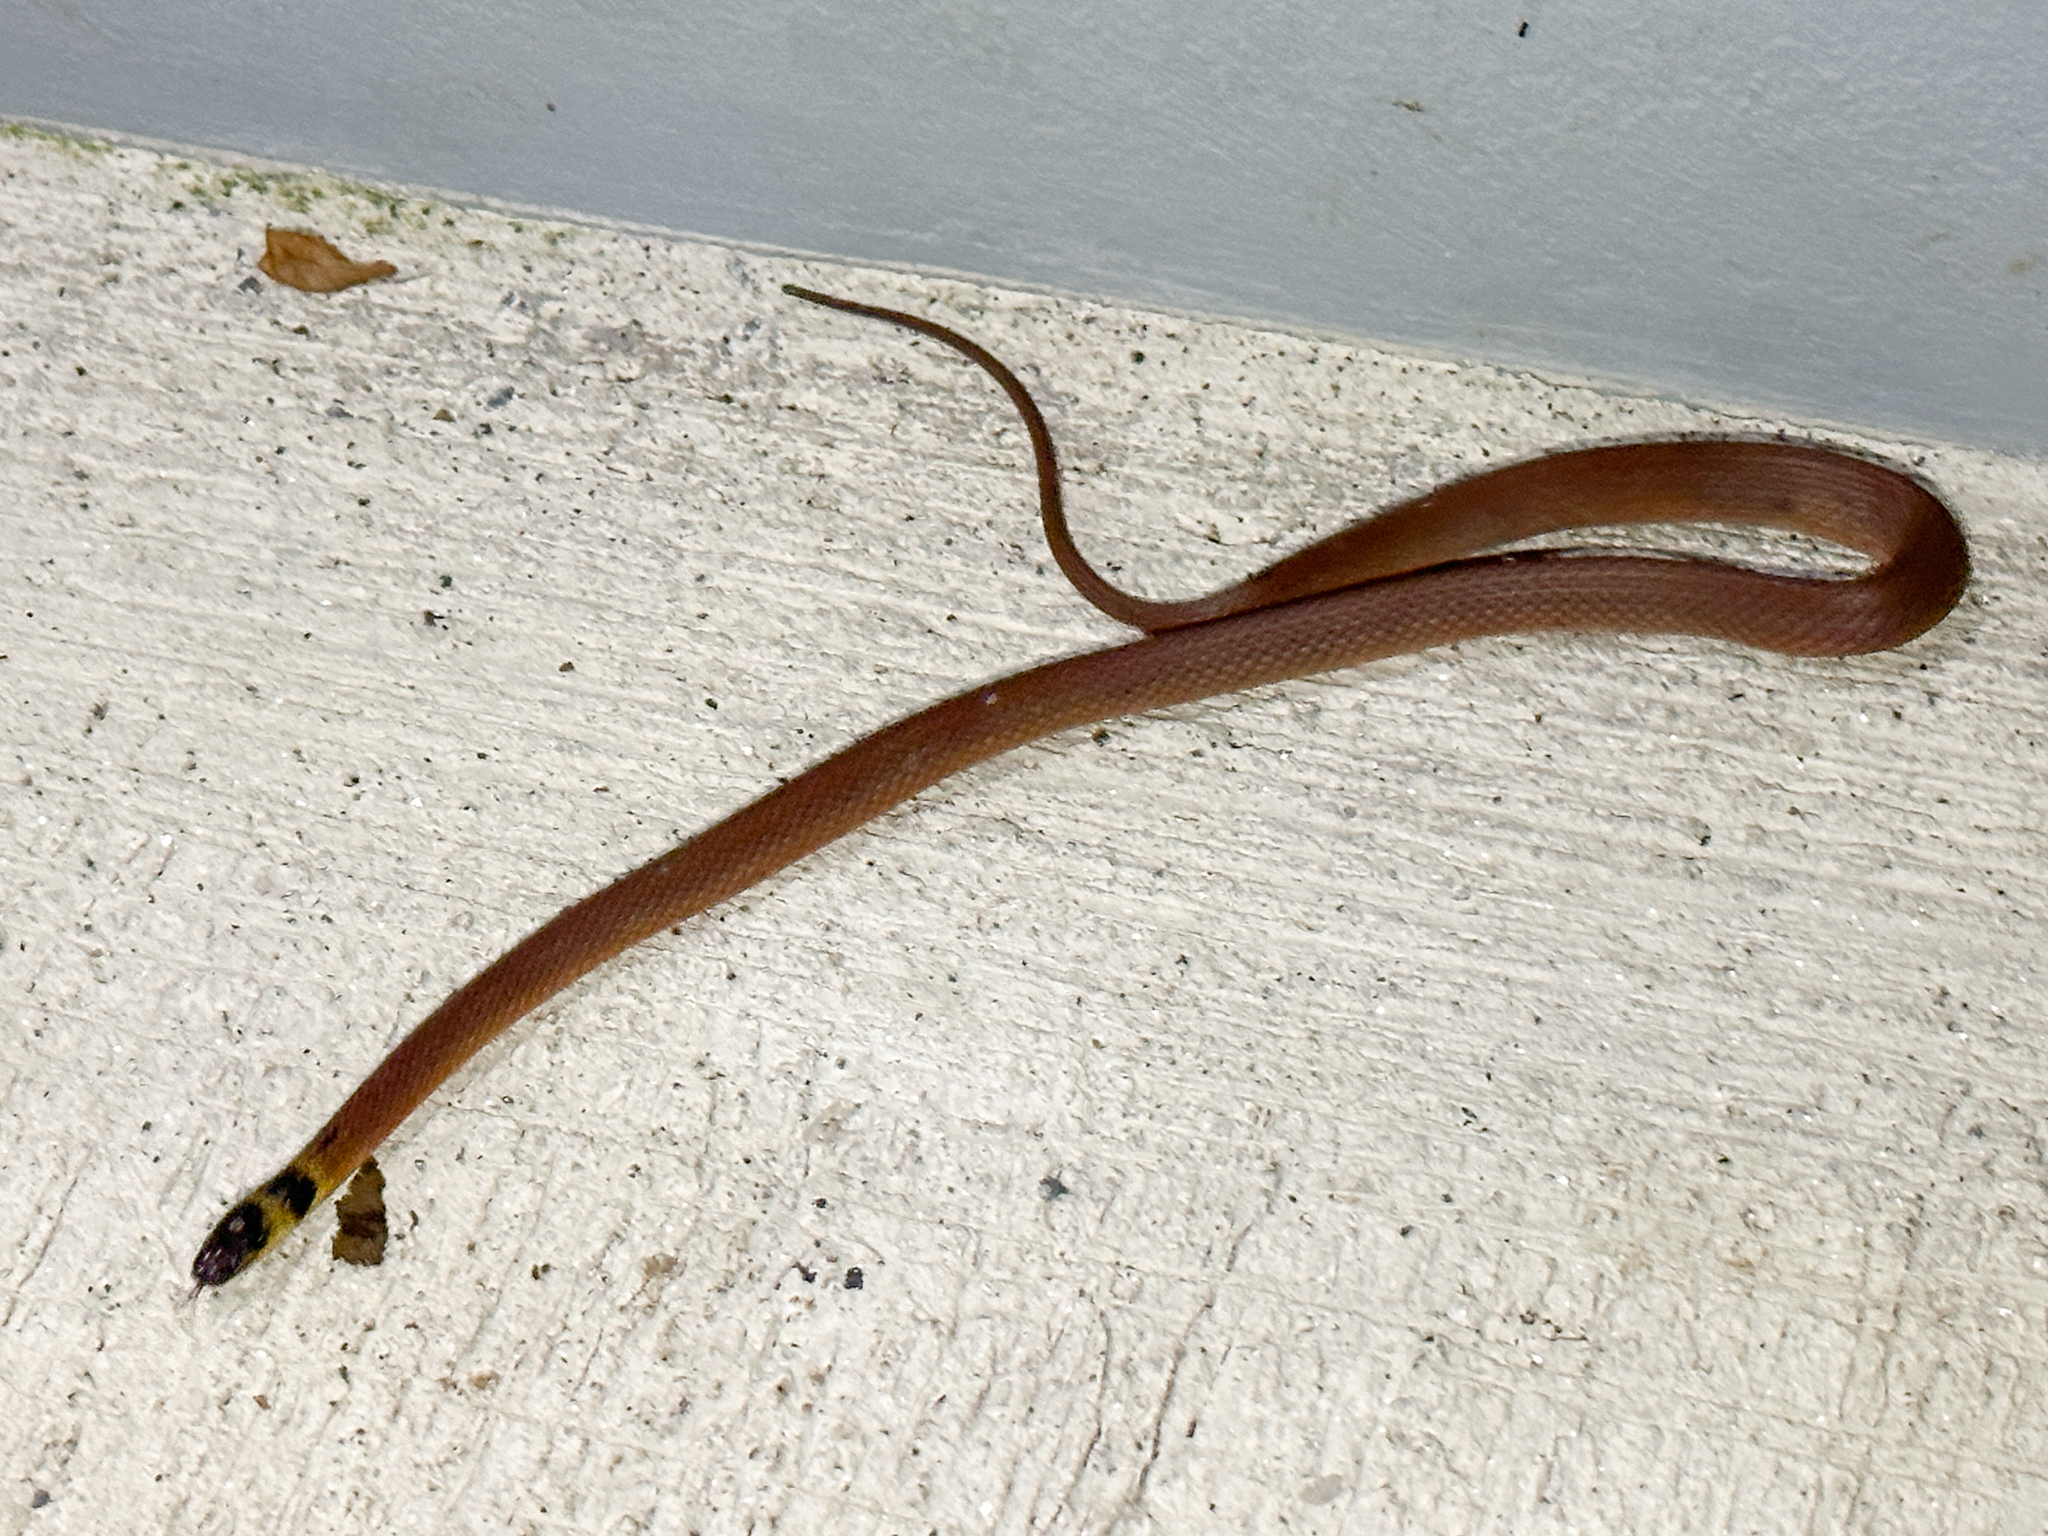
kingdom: Animalia
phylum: Chordata
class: Squamata
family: Colubridae
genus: Ninia
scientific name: Ninia sebae
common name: Redback coffee snake
